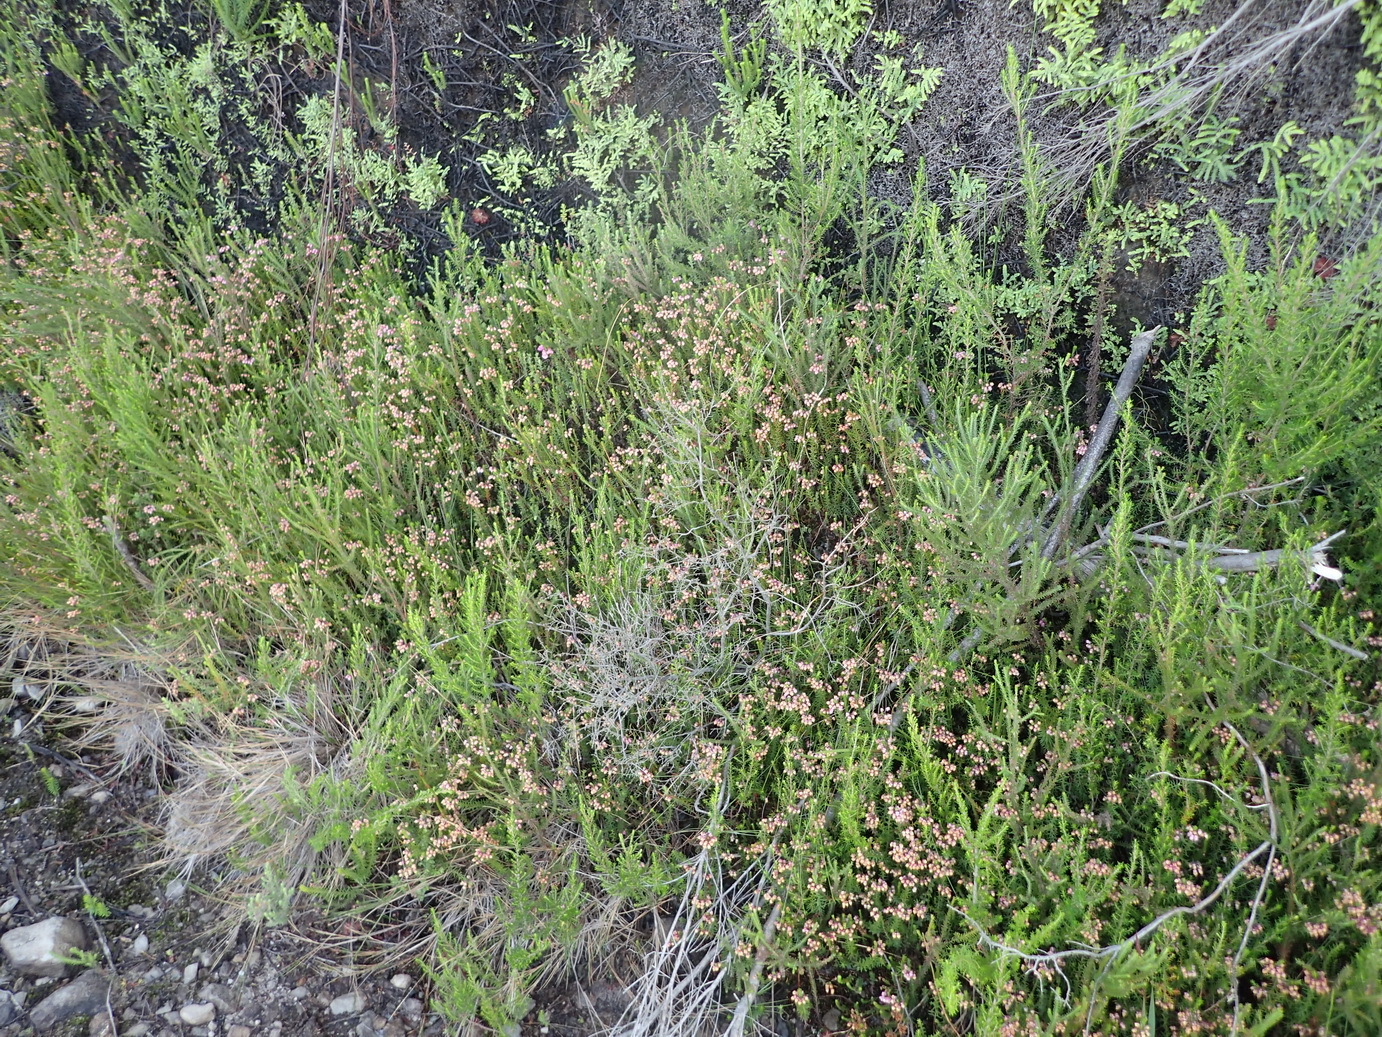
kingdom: Plantae
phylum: Tracheophyta
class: Magnoliopsida
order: Ericales
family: Ericaceae
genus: Erica
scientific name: Erica cubica
